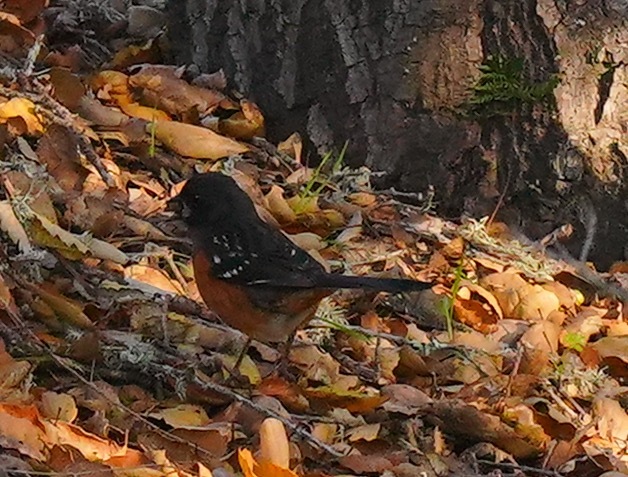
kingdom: Animalia
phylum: Chordata
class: Aves
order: Passeriformes
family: Passerellidae
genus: Pipilo
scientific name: Pipilo maculatus
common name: Spotted towhee
